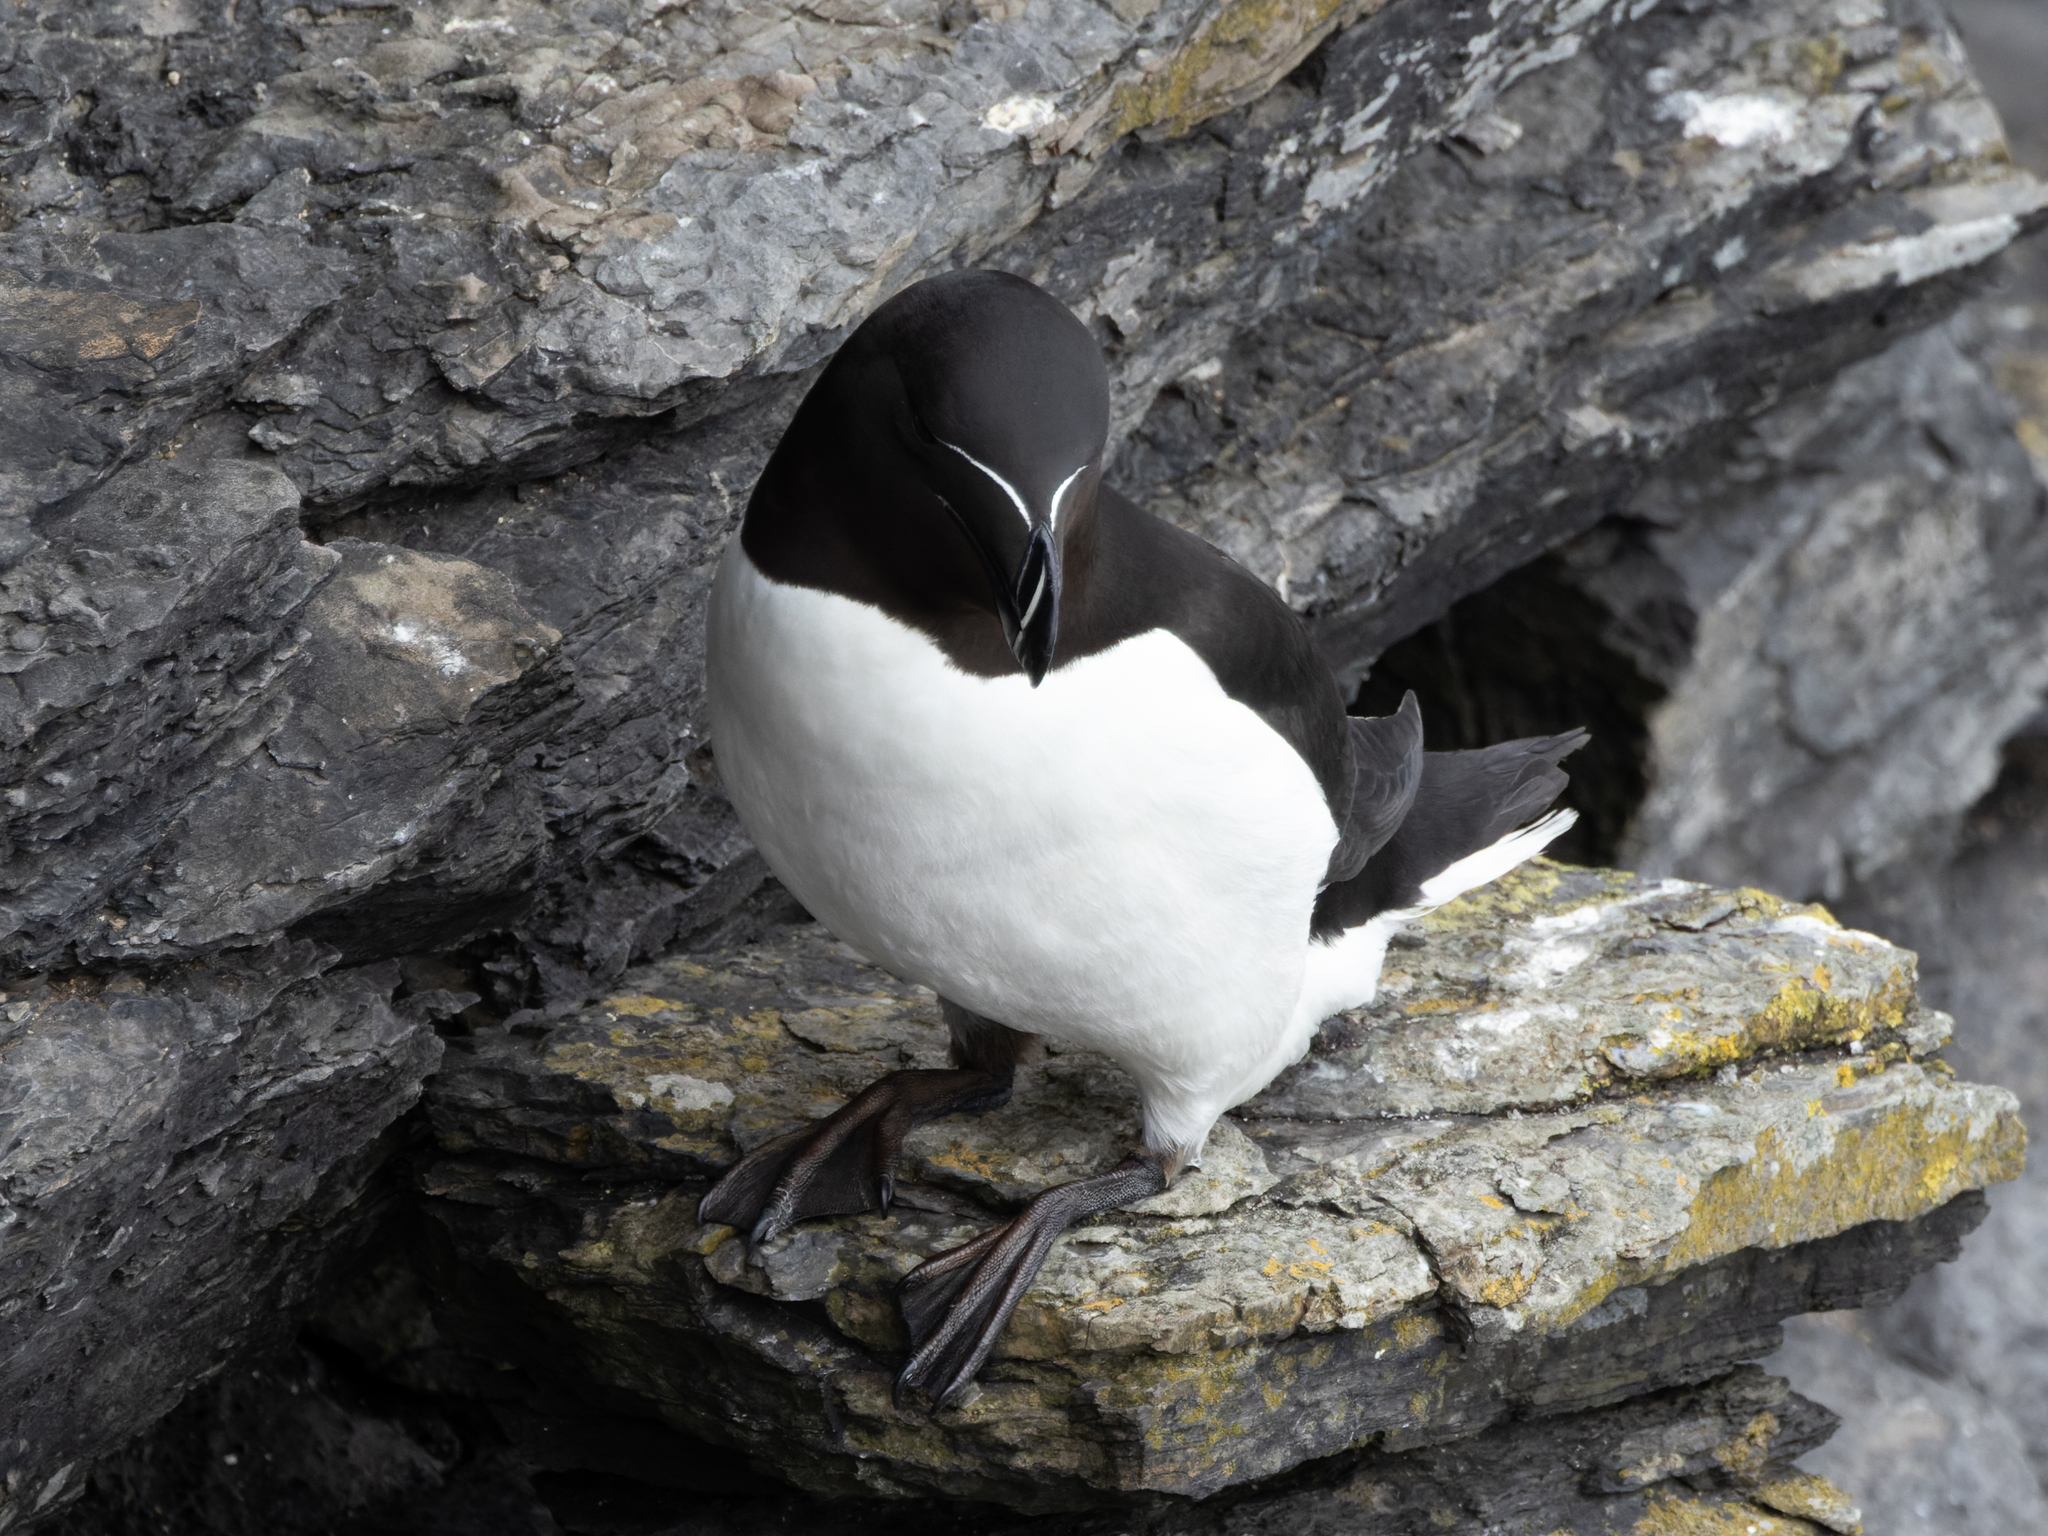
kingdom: Animalia
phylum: Chordata
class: Aves
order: Charadriiformes
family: Alcidae
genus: Alca
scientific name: Alca torda
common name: Razorbill
